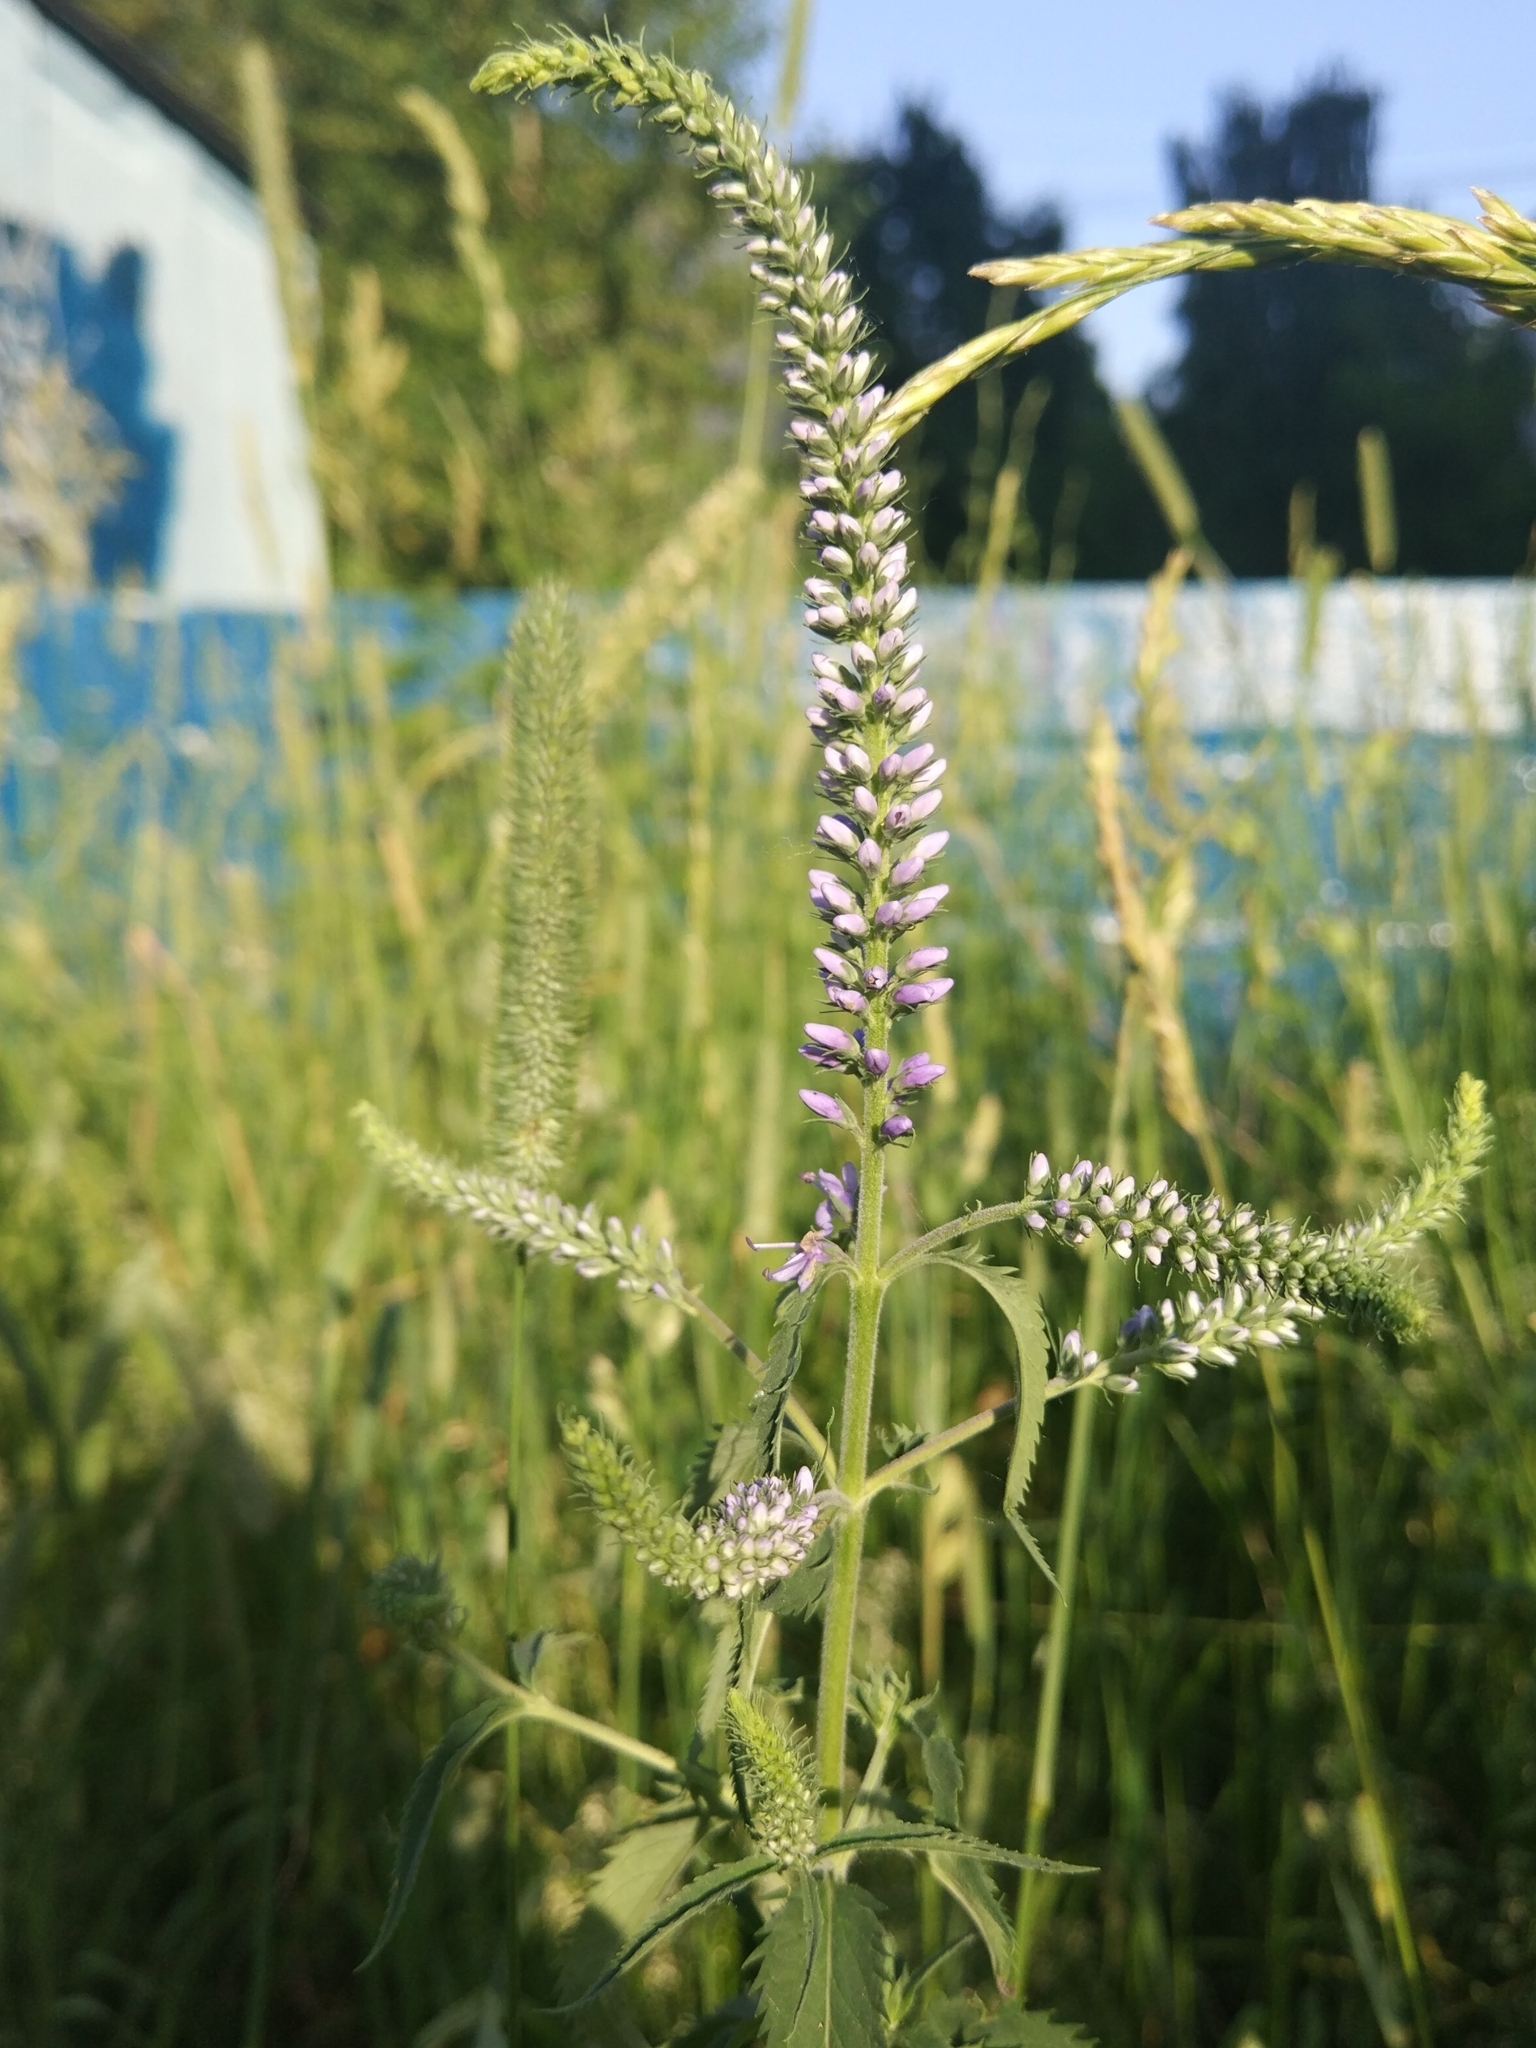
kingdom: Plantae
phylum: Tracheophyta
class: Magnoliopsida
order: Lamiales
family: Plantaginaceae
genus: Veronica
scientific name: Veronica longifolia
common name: Garden speedwell
